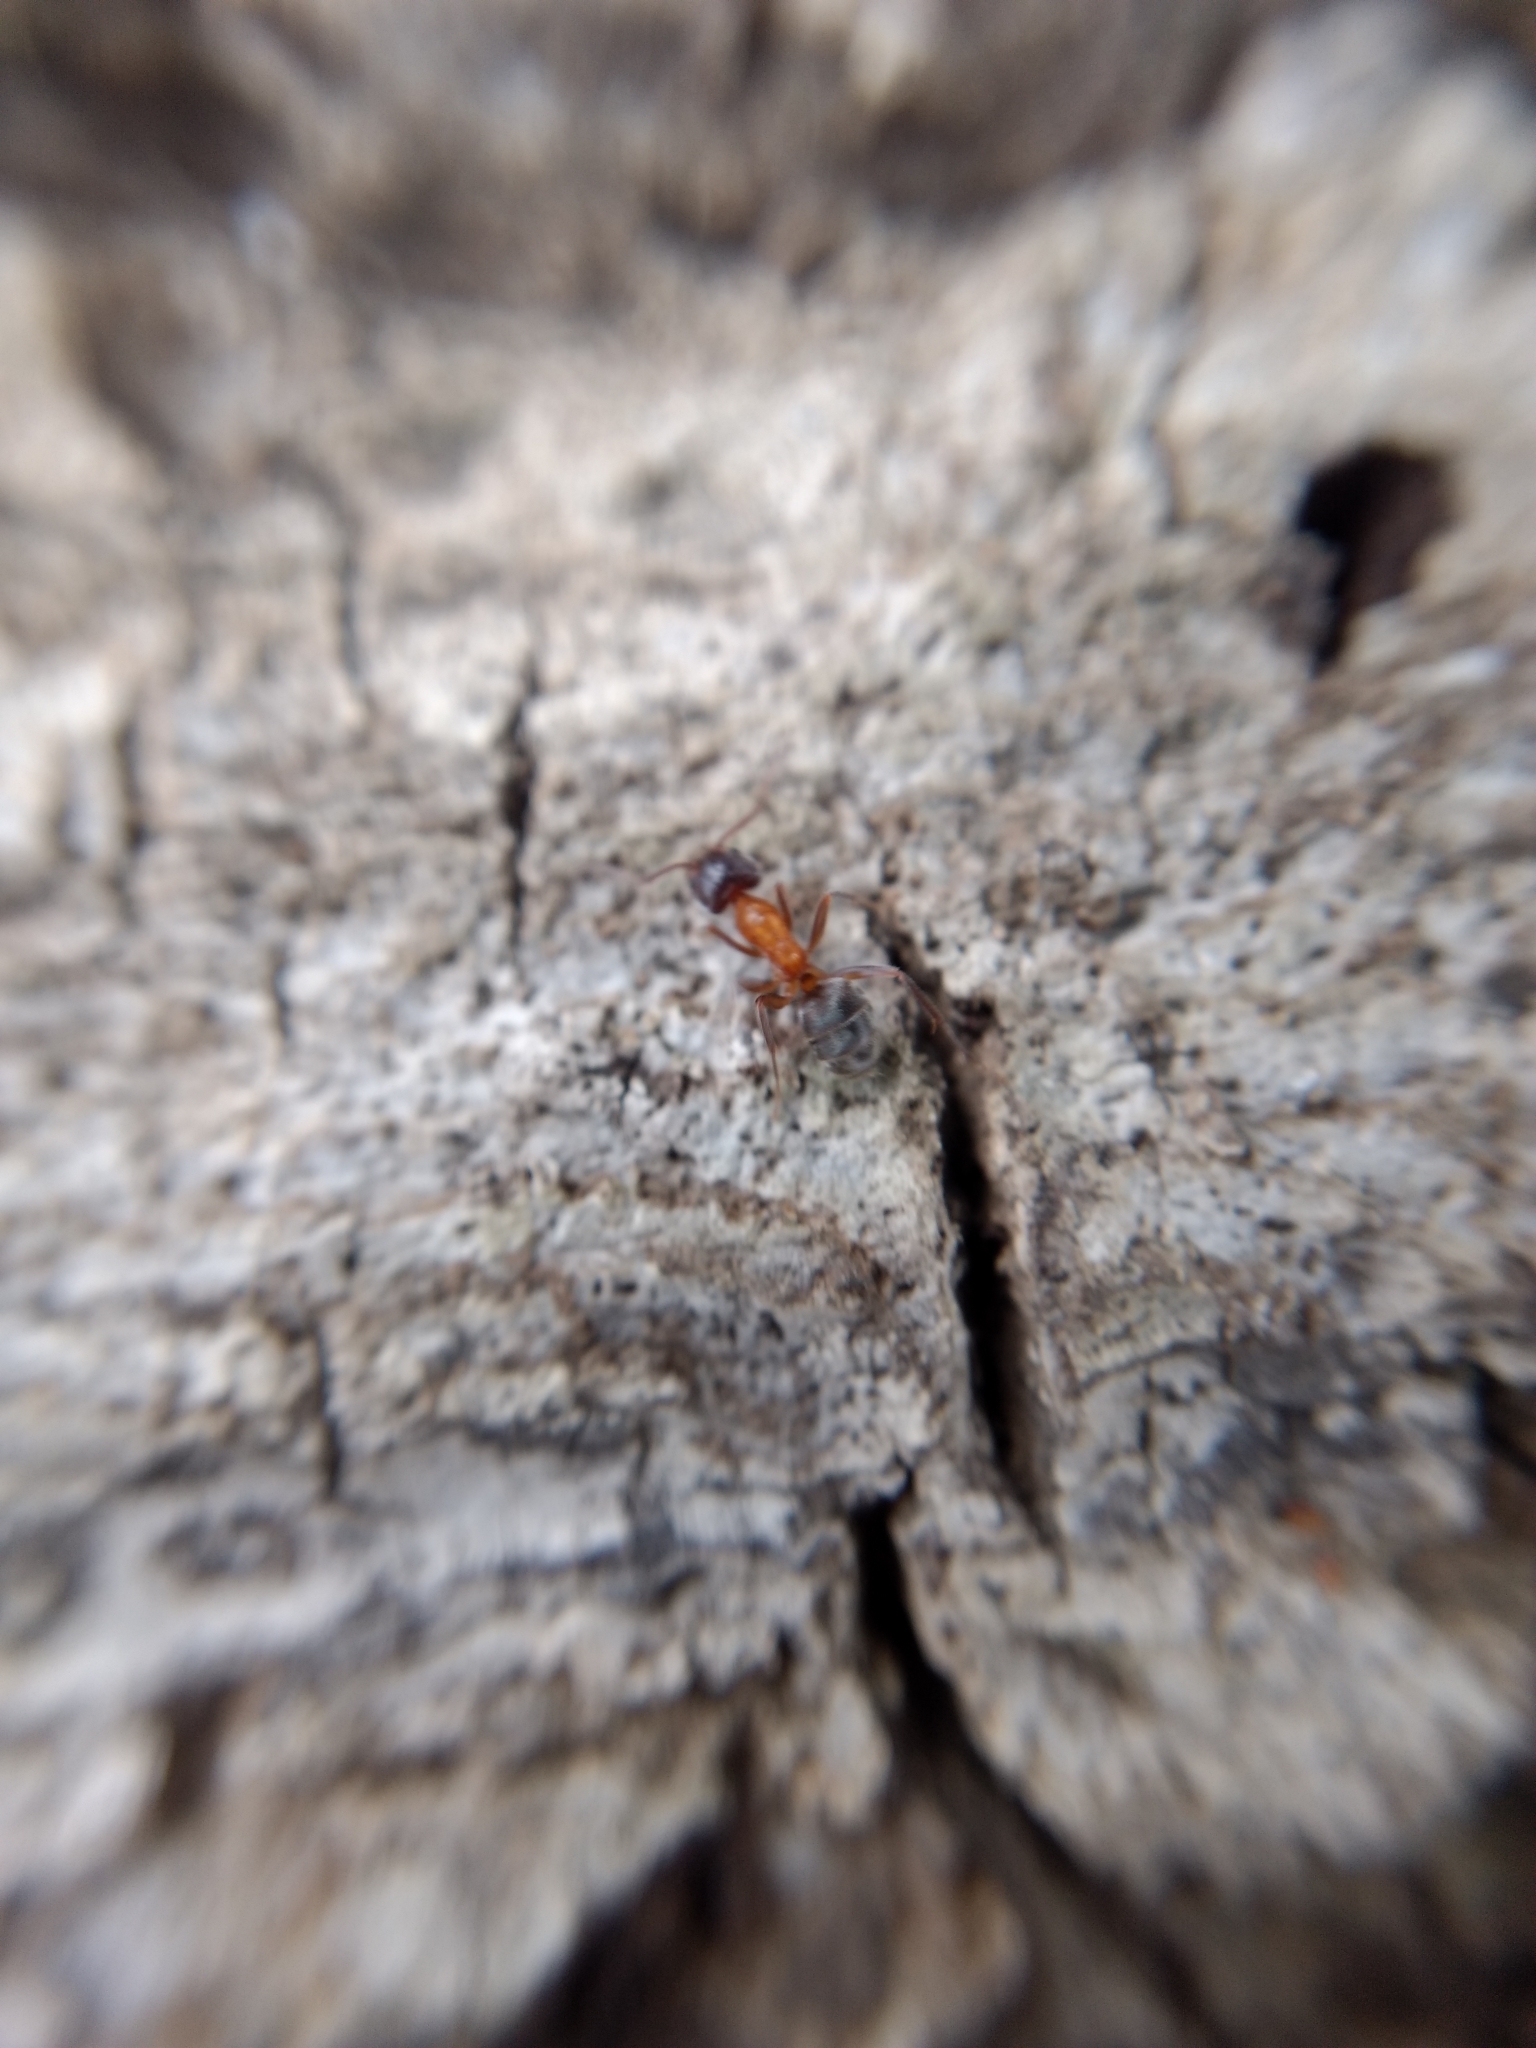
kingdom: Animalia
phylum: Arthropoda
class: Insecta
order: Hymenoptera
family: Formicidae
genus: Liometopum
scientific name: Liometopum occidentale
